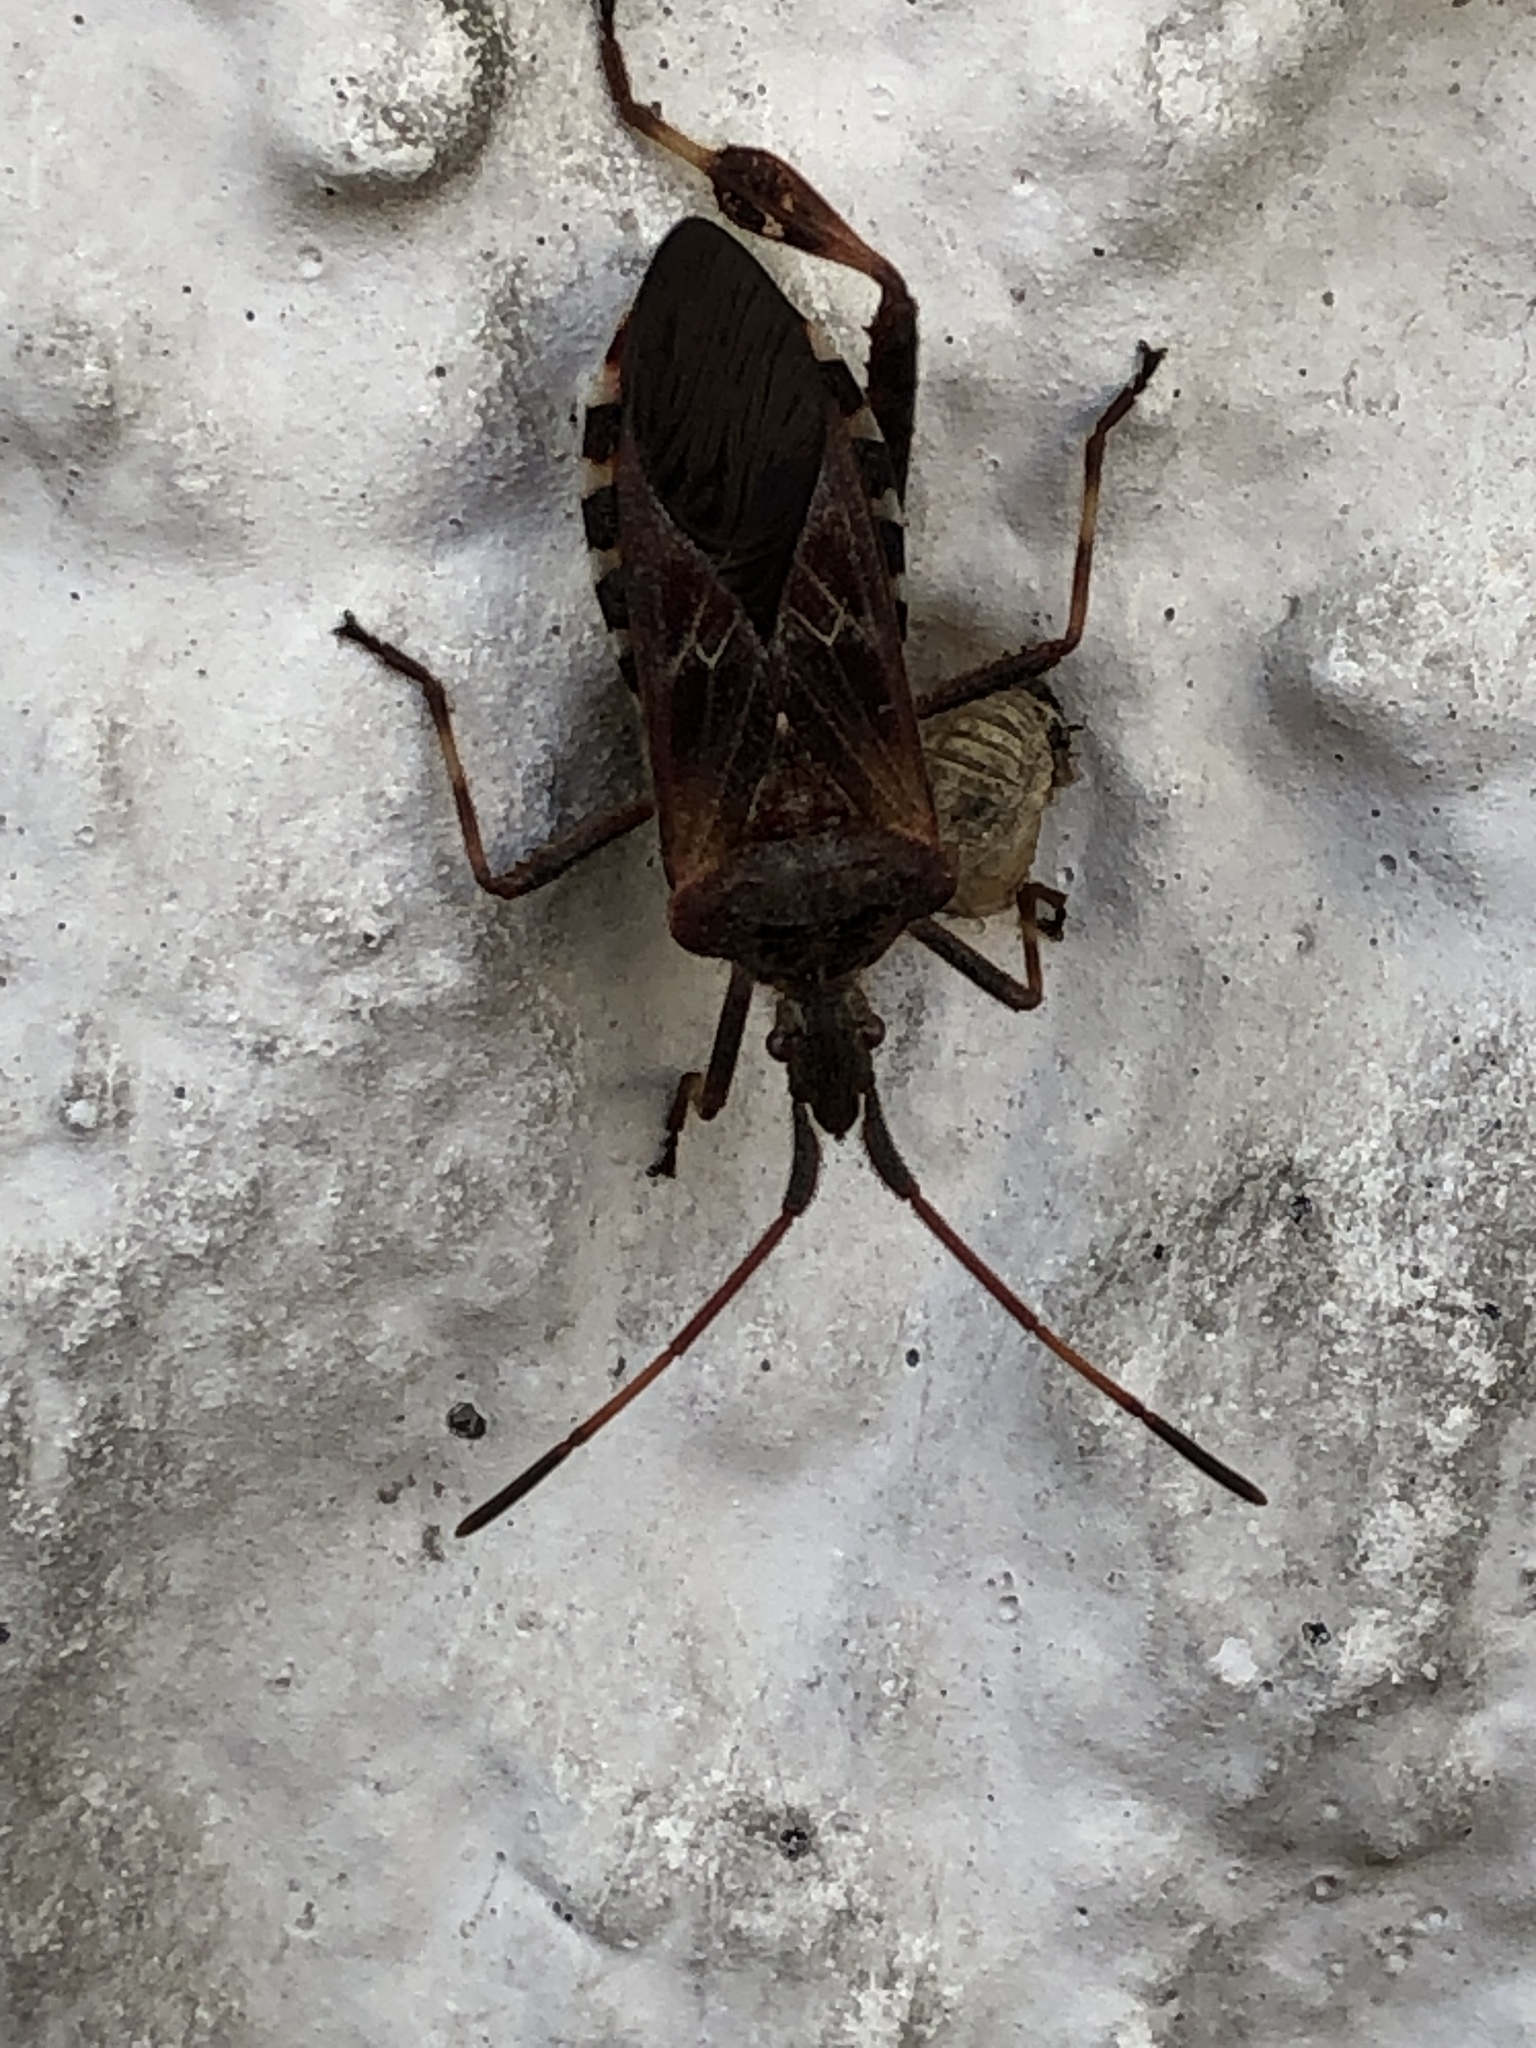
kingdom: Animalia
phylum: Arthropoda
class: Insecta
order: Hemiptera
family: Coreidae
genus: Leptoglossus
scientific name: Leptoglossus occidentalis
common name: Western conifer-seed bug
